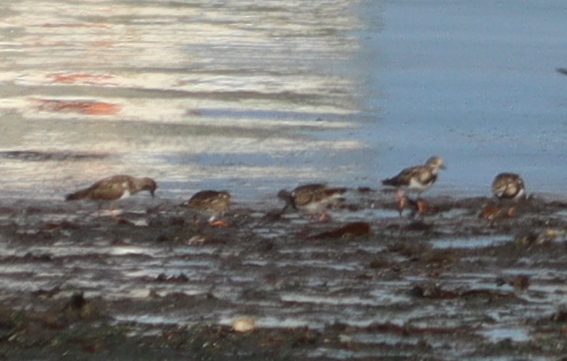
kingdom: Animalia
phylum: Chordata
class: Aves
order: Charadriiformes
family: Scolopacidae
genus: Arenaria
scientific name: Arenaria interpres
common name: Ruddy turnstone
